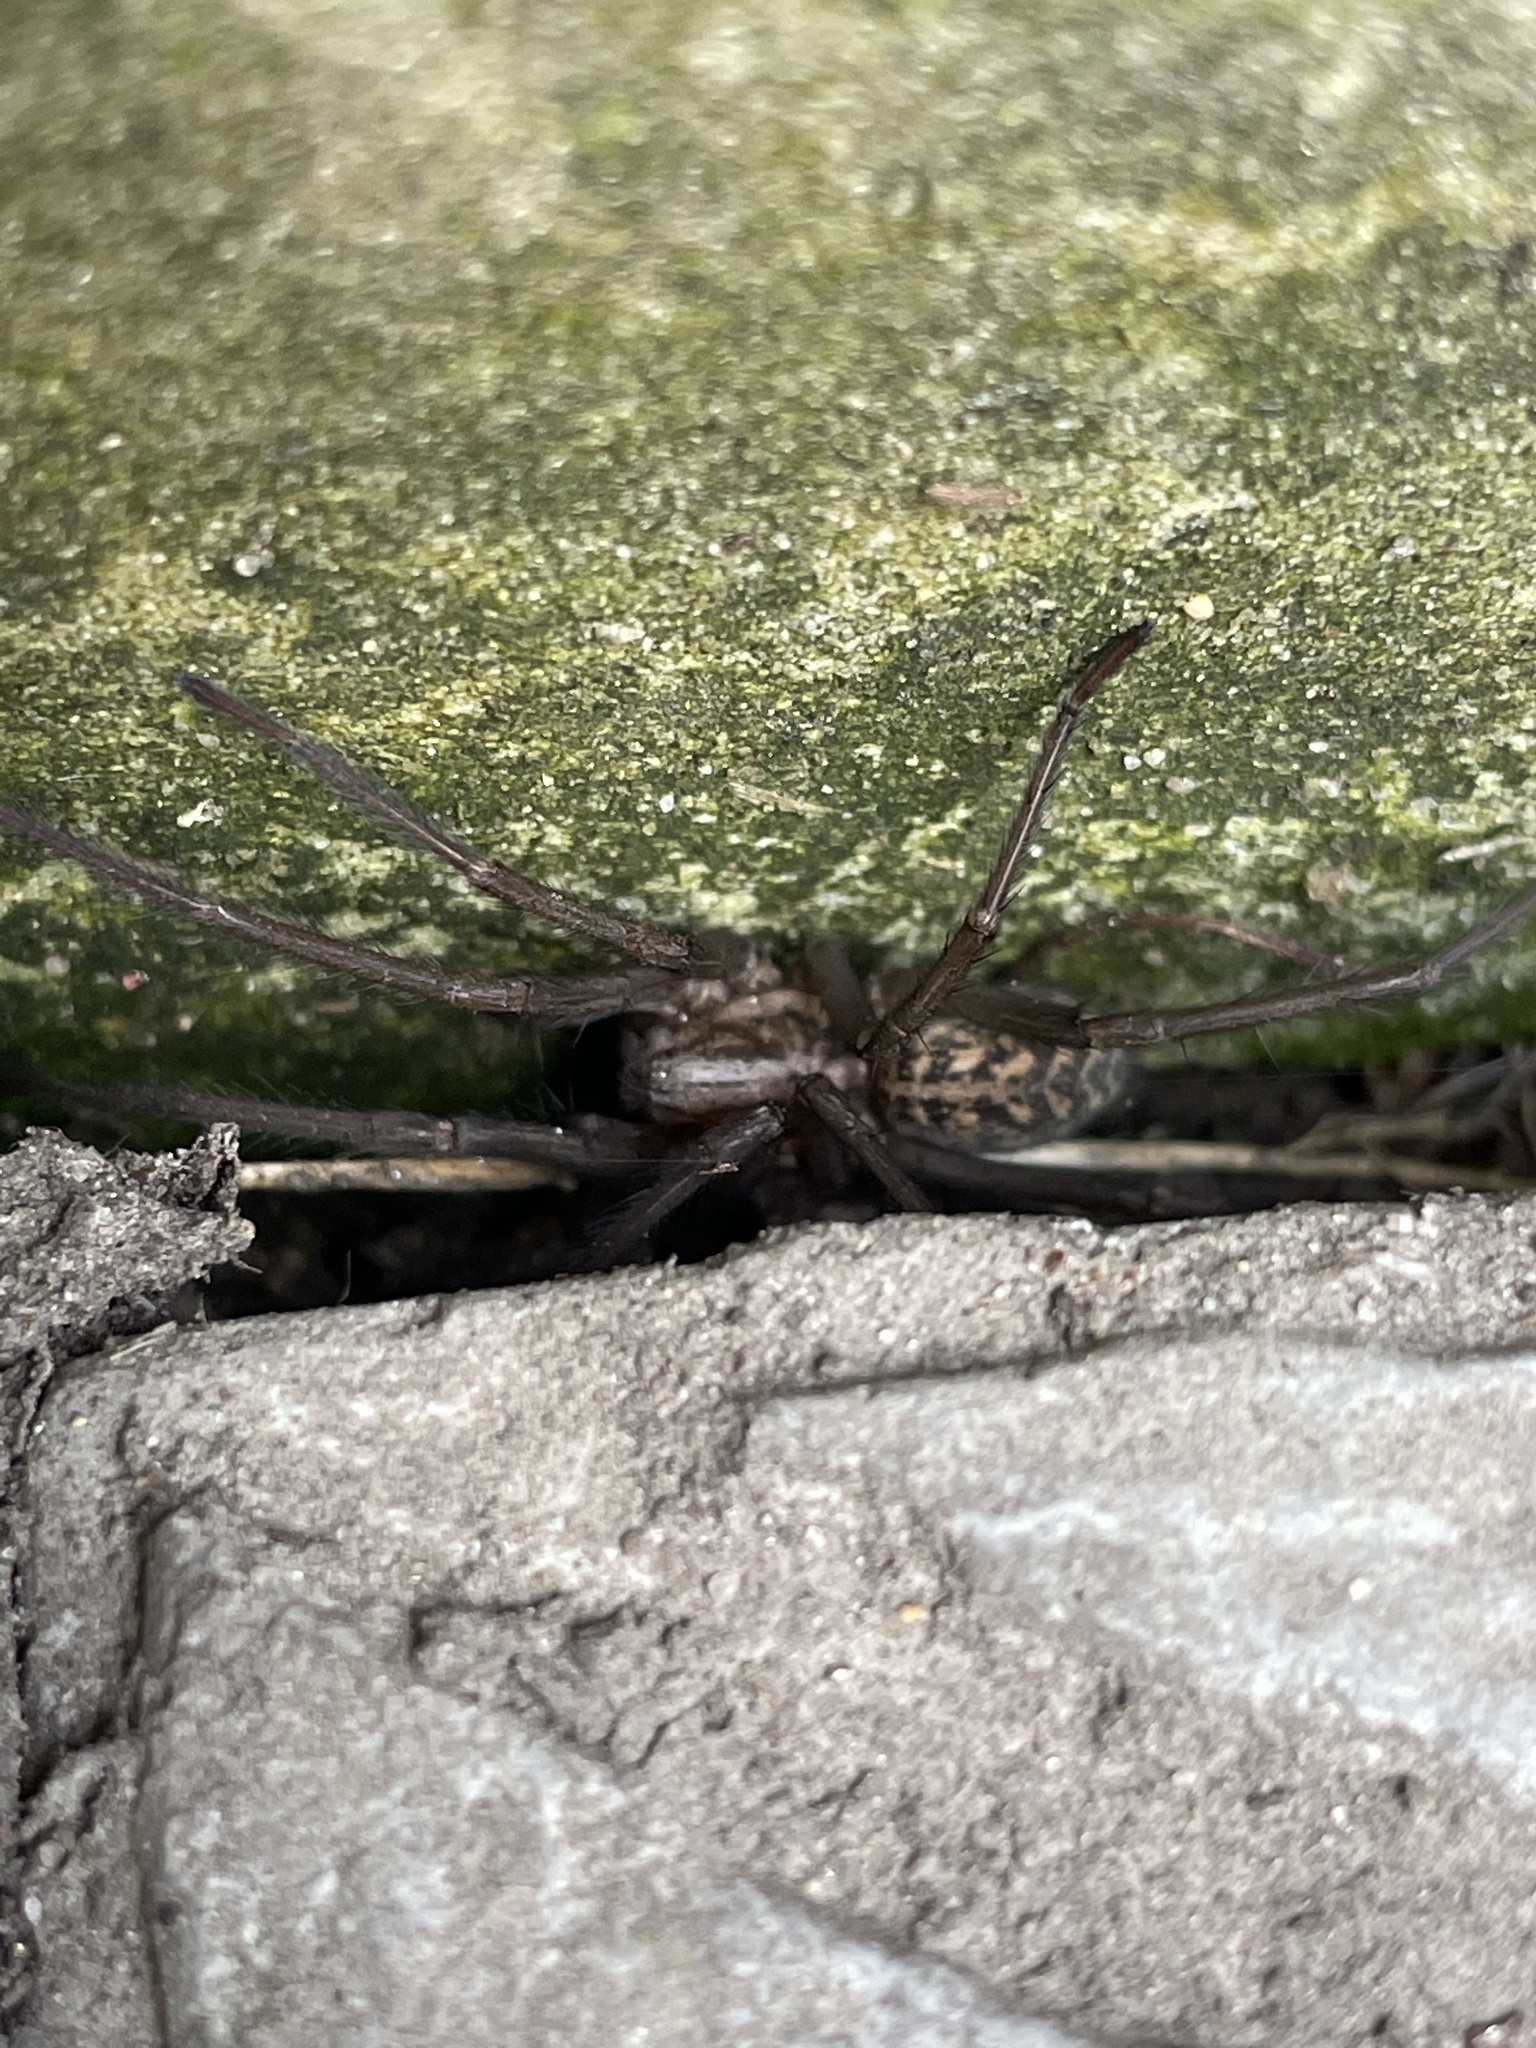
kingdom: Animalia
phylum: Arthropoda
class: Arachnida
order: Araneae
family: Agelenidae
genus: Eratigena
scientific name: Eratigena atrica
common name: Giant house spider
